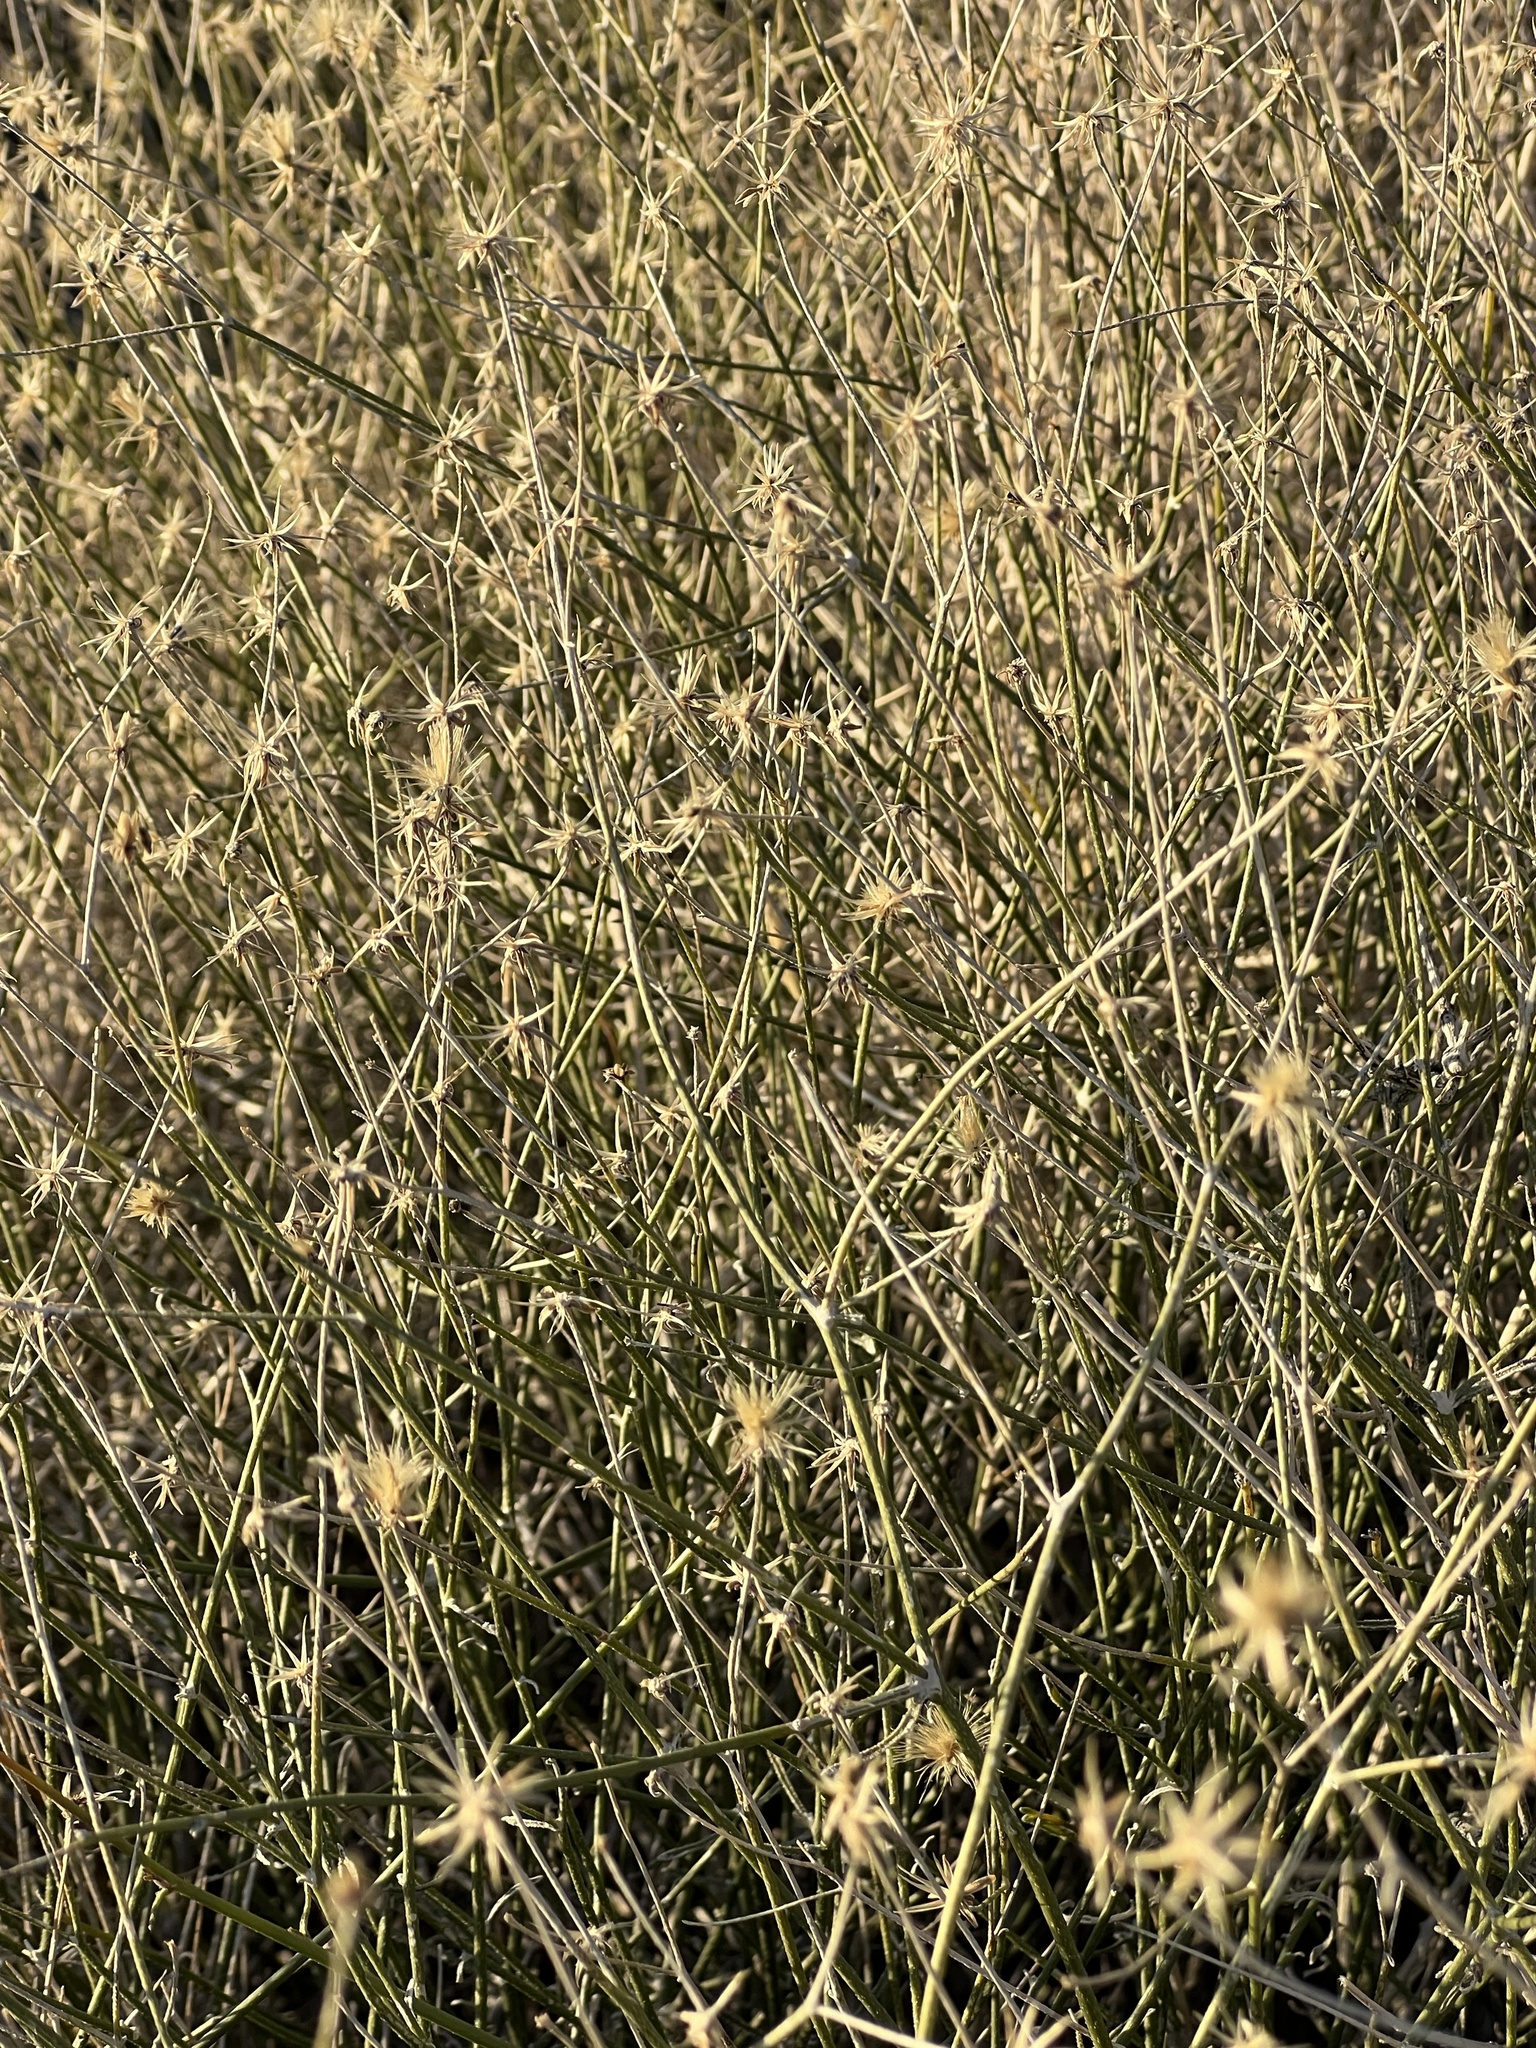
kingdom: Plantae
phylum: Tracheophyta
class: Magnoliopsida
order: Asterales
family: Asteraceae
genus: Bebbia
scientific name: Bebbia juncea
